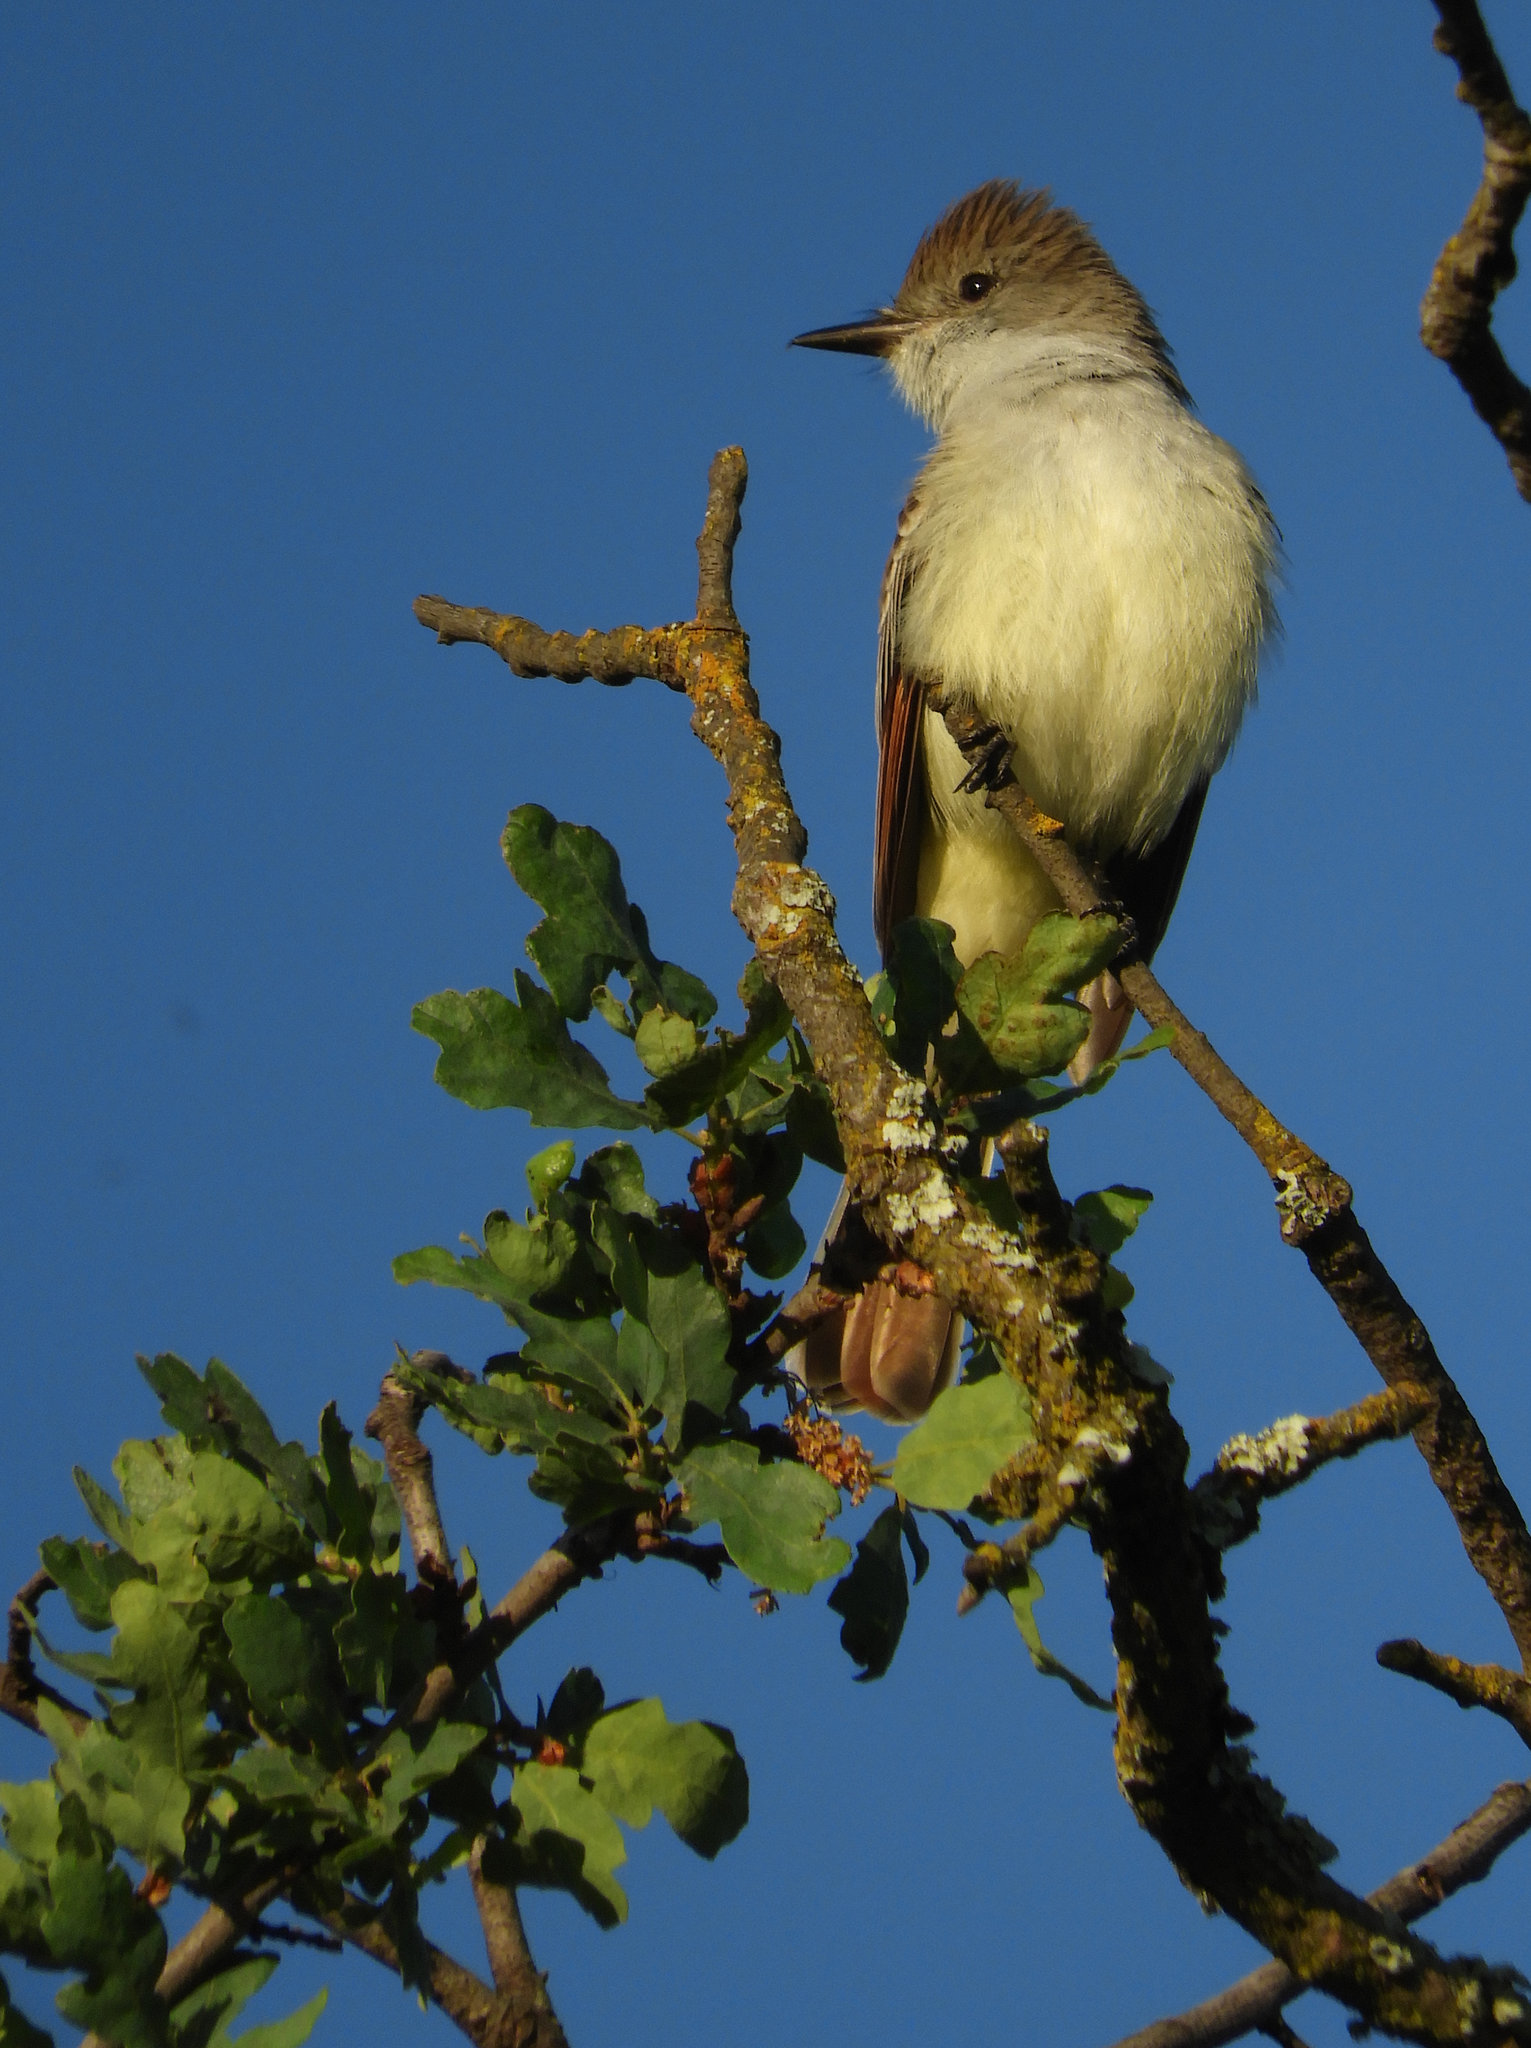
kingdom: Animalia
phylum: Chordata
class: Aves
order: Passeriformes
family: Tyrannidae
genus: Myiarchus
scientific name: Myiarchus cinerascens
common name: Ash-throated flycatcher
